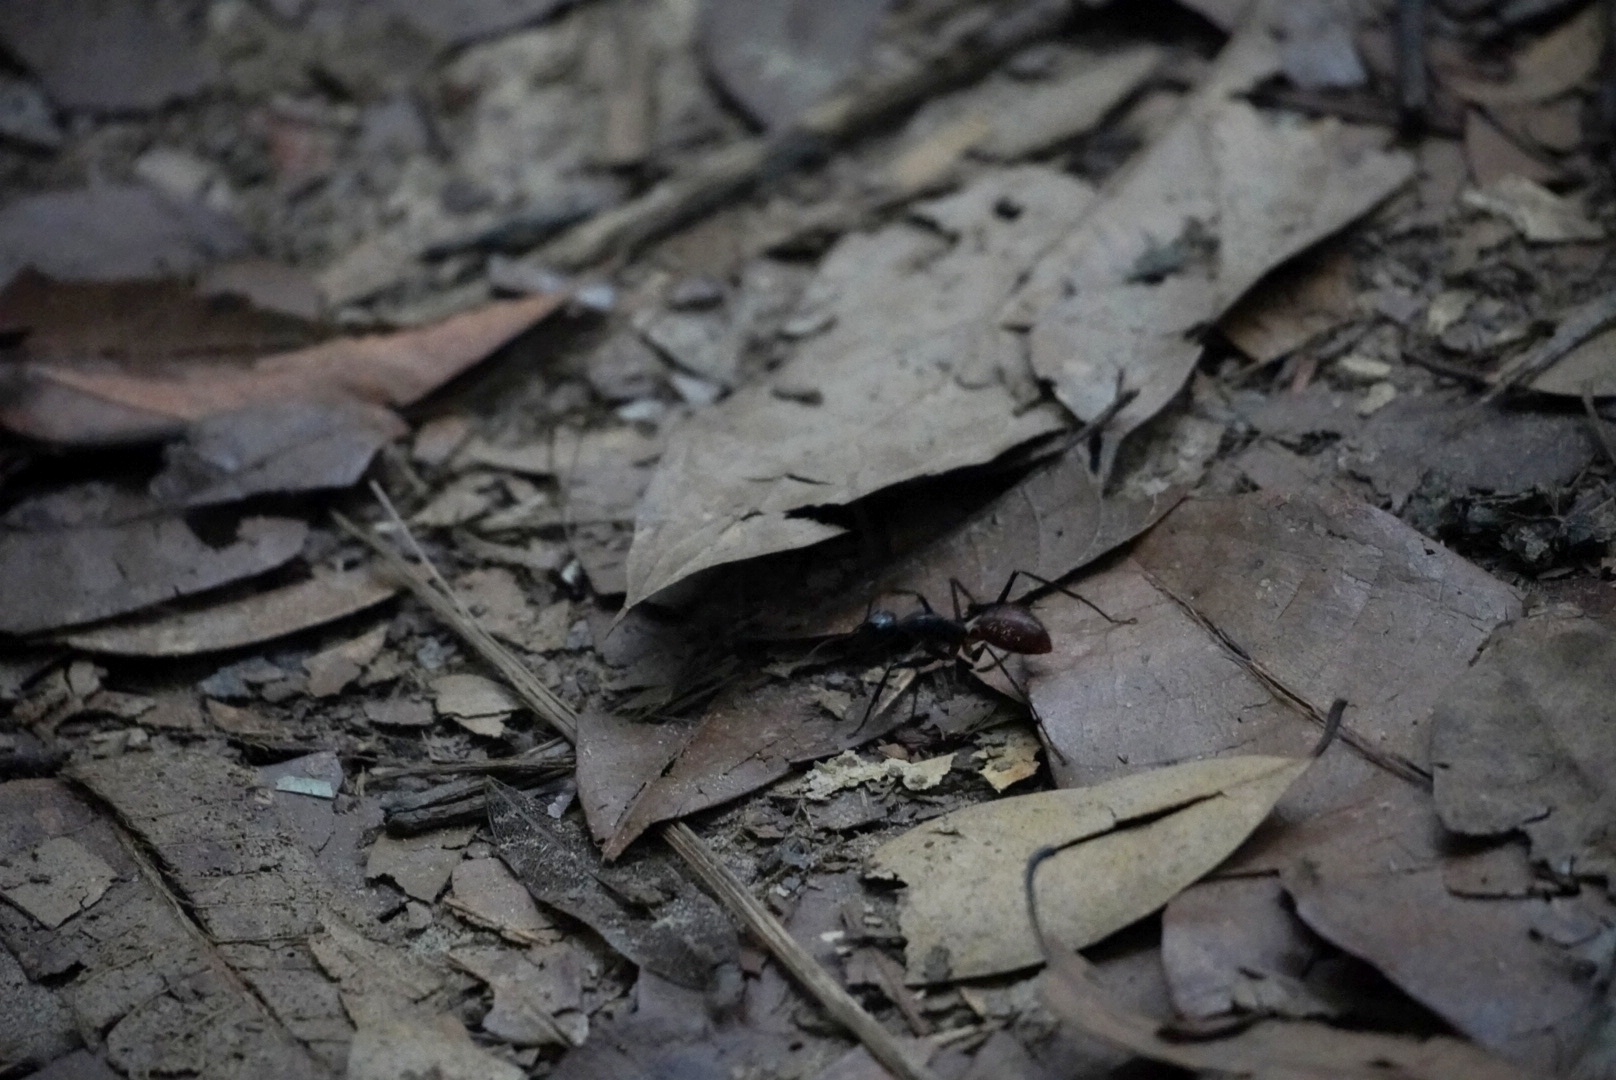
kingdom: Animalia
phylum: Arthropoda
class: Insecta
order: Hymenoptera
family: Formicidae
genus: Dinomyrmex
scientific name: Dinomyrmex
